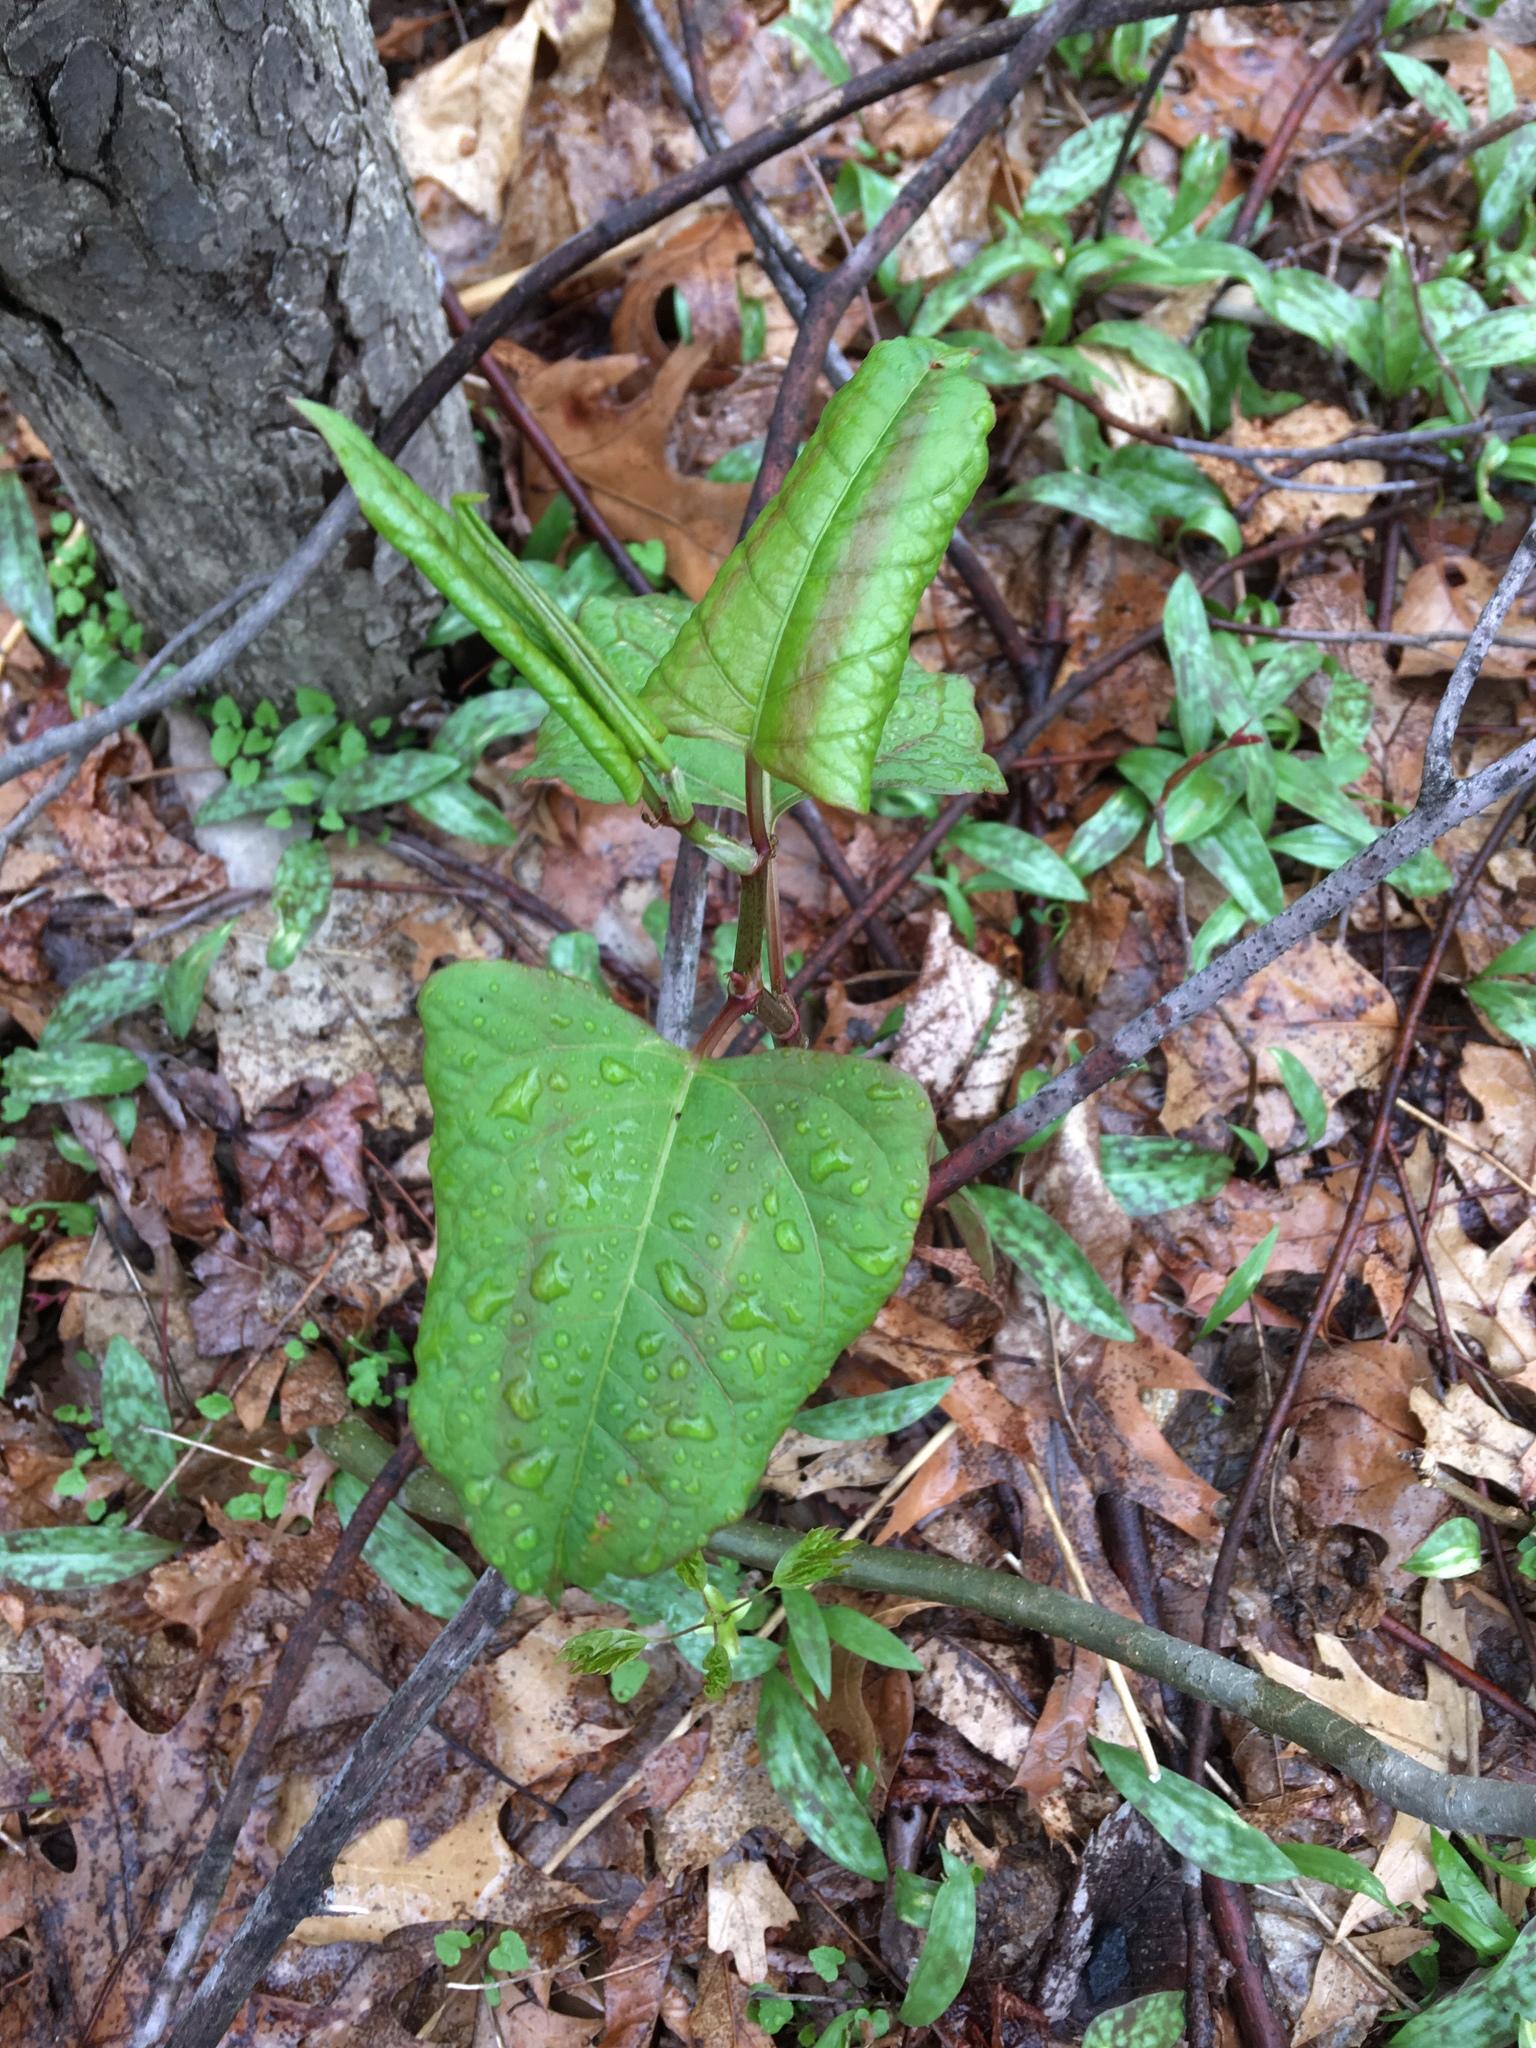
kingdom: Plantae
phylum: Tracheophyta
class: Magnoliopsida
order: Caryophyllales
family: Polygonaceae
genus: Reynoutria
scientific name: Reynoutria japonica
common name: Japanese knotweed
